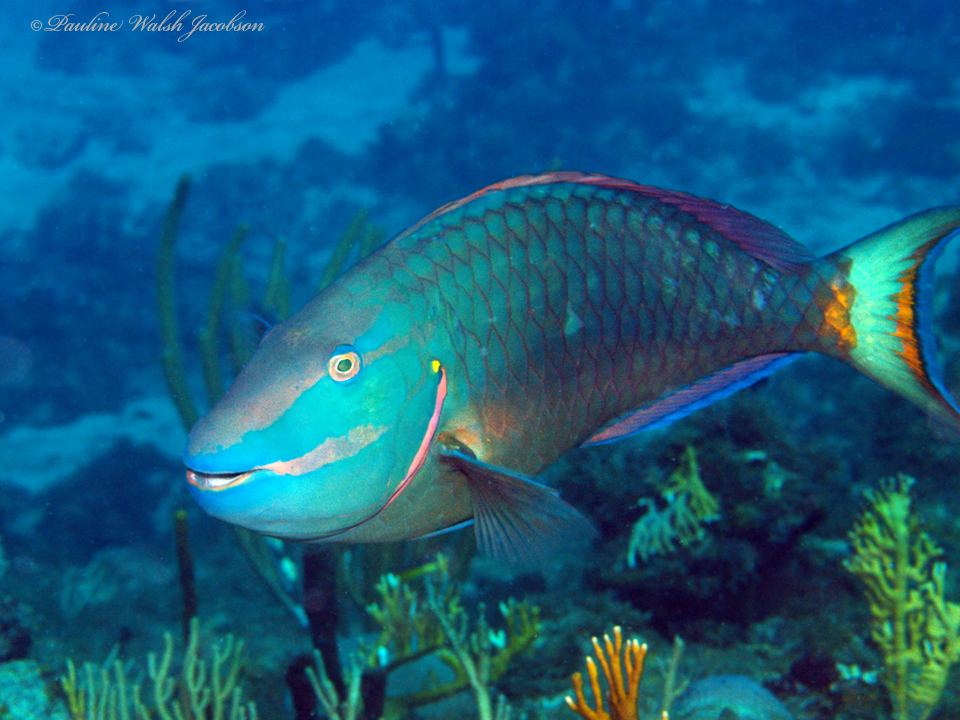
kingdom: Animalia
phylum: Chordata
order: Perciformes
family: Scaridae
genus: Sparisoma
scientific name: Sparisoma viride
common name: Stoplight parrotfish
